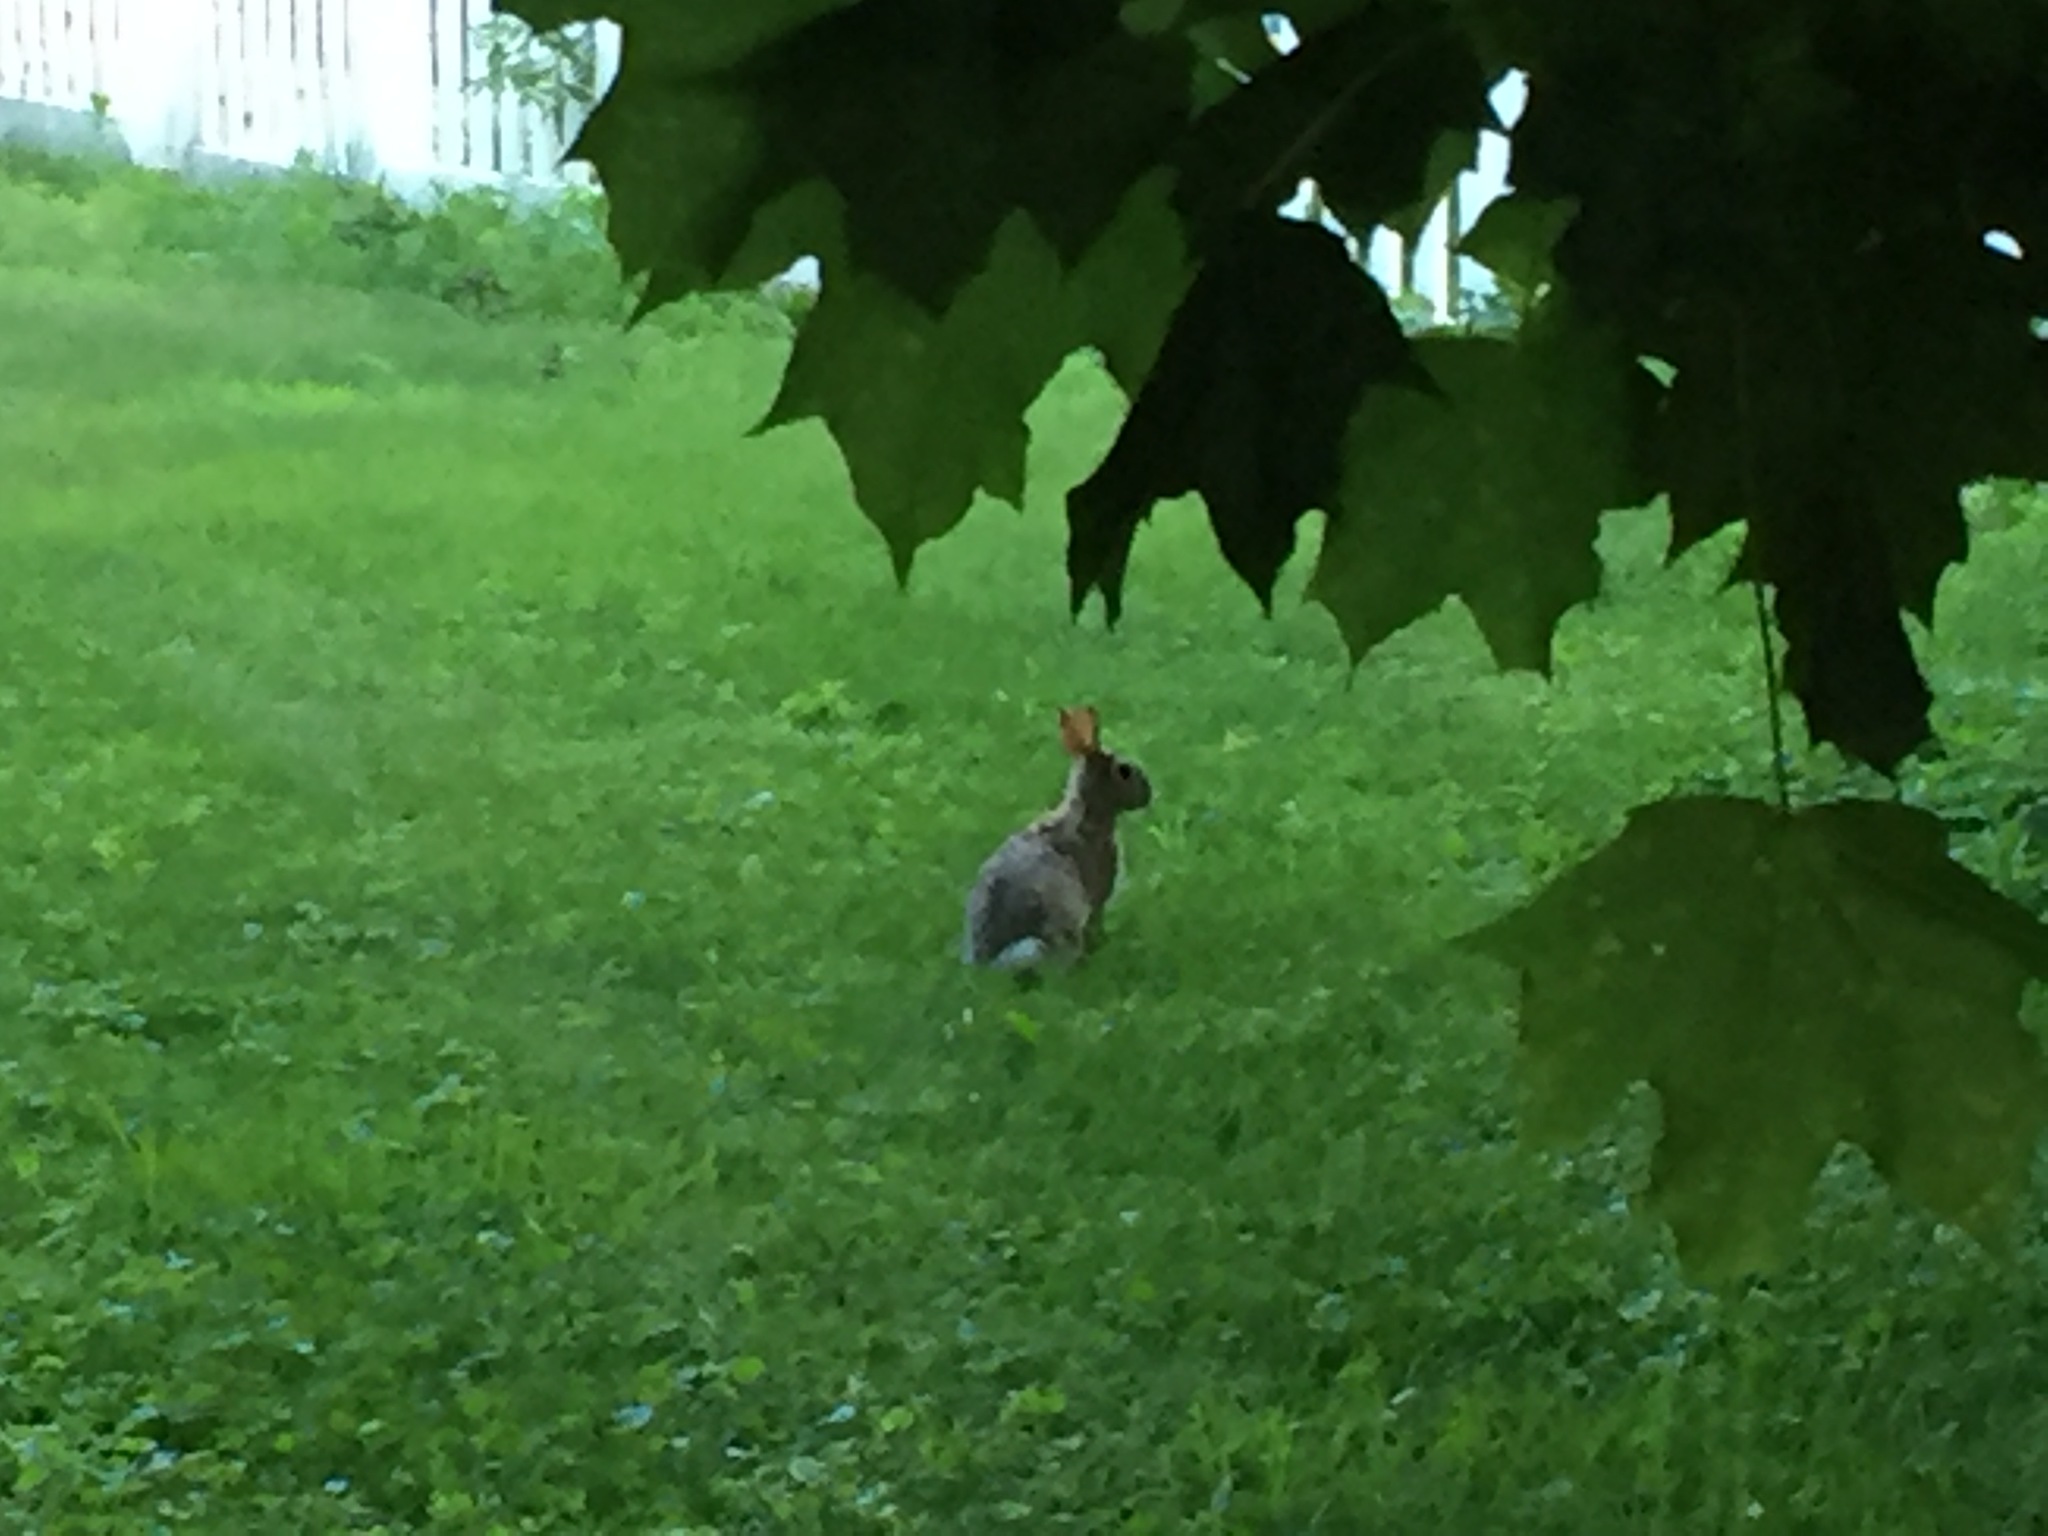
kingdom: Animalia
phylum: Chordata
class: Mammalia
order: Lagomorpha
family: Leporidae
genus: Sylvilagus
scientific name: Sylvilagus floridanus
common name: Eastern cottontail
